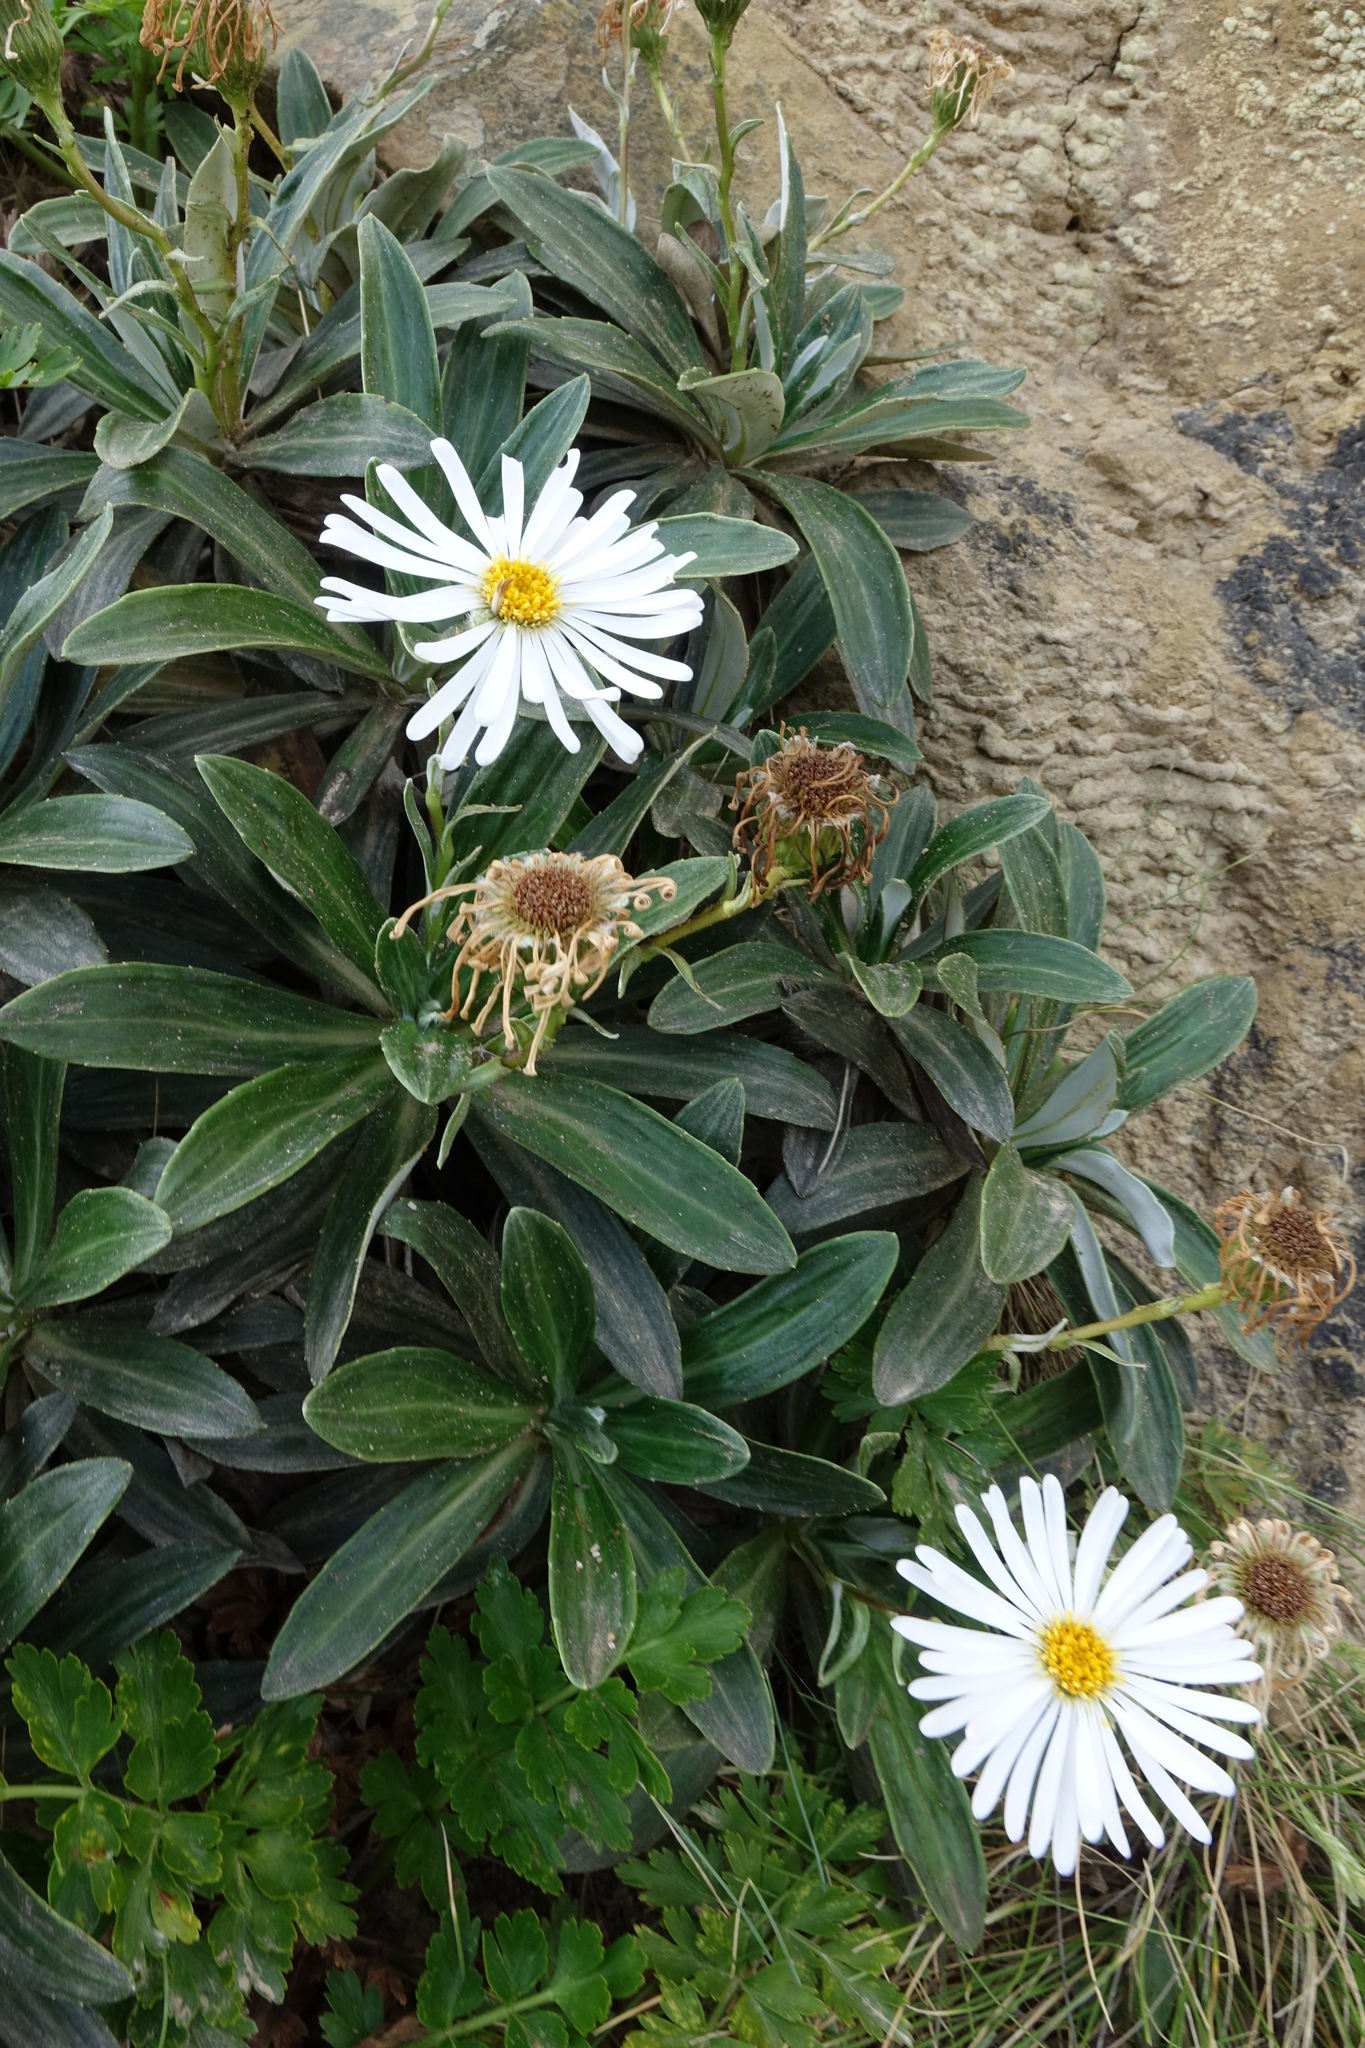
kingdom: Plantae
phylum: Tracheophyta
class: Magnoliopsida
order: Asterales
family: Asteraceae
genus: Celmisia
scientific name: Celmisia lindsayi
